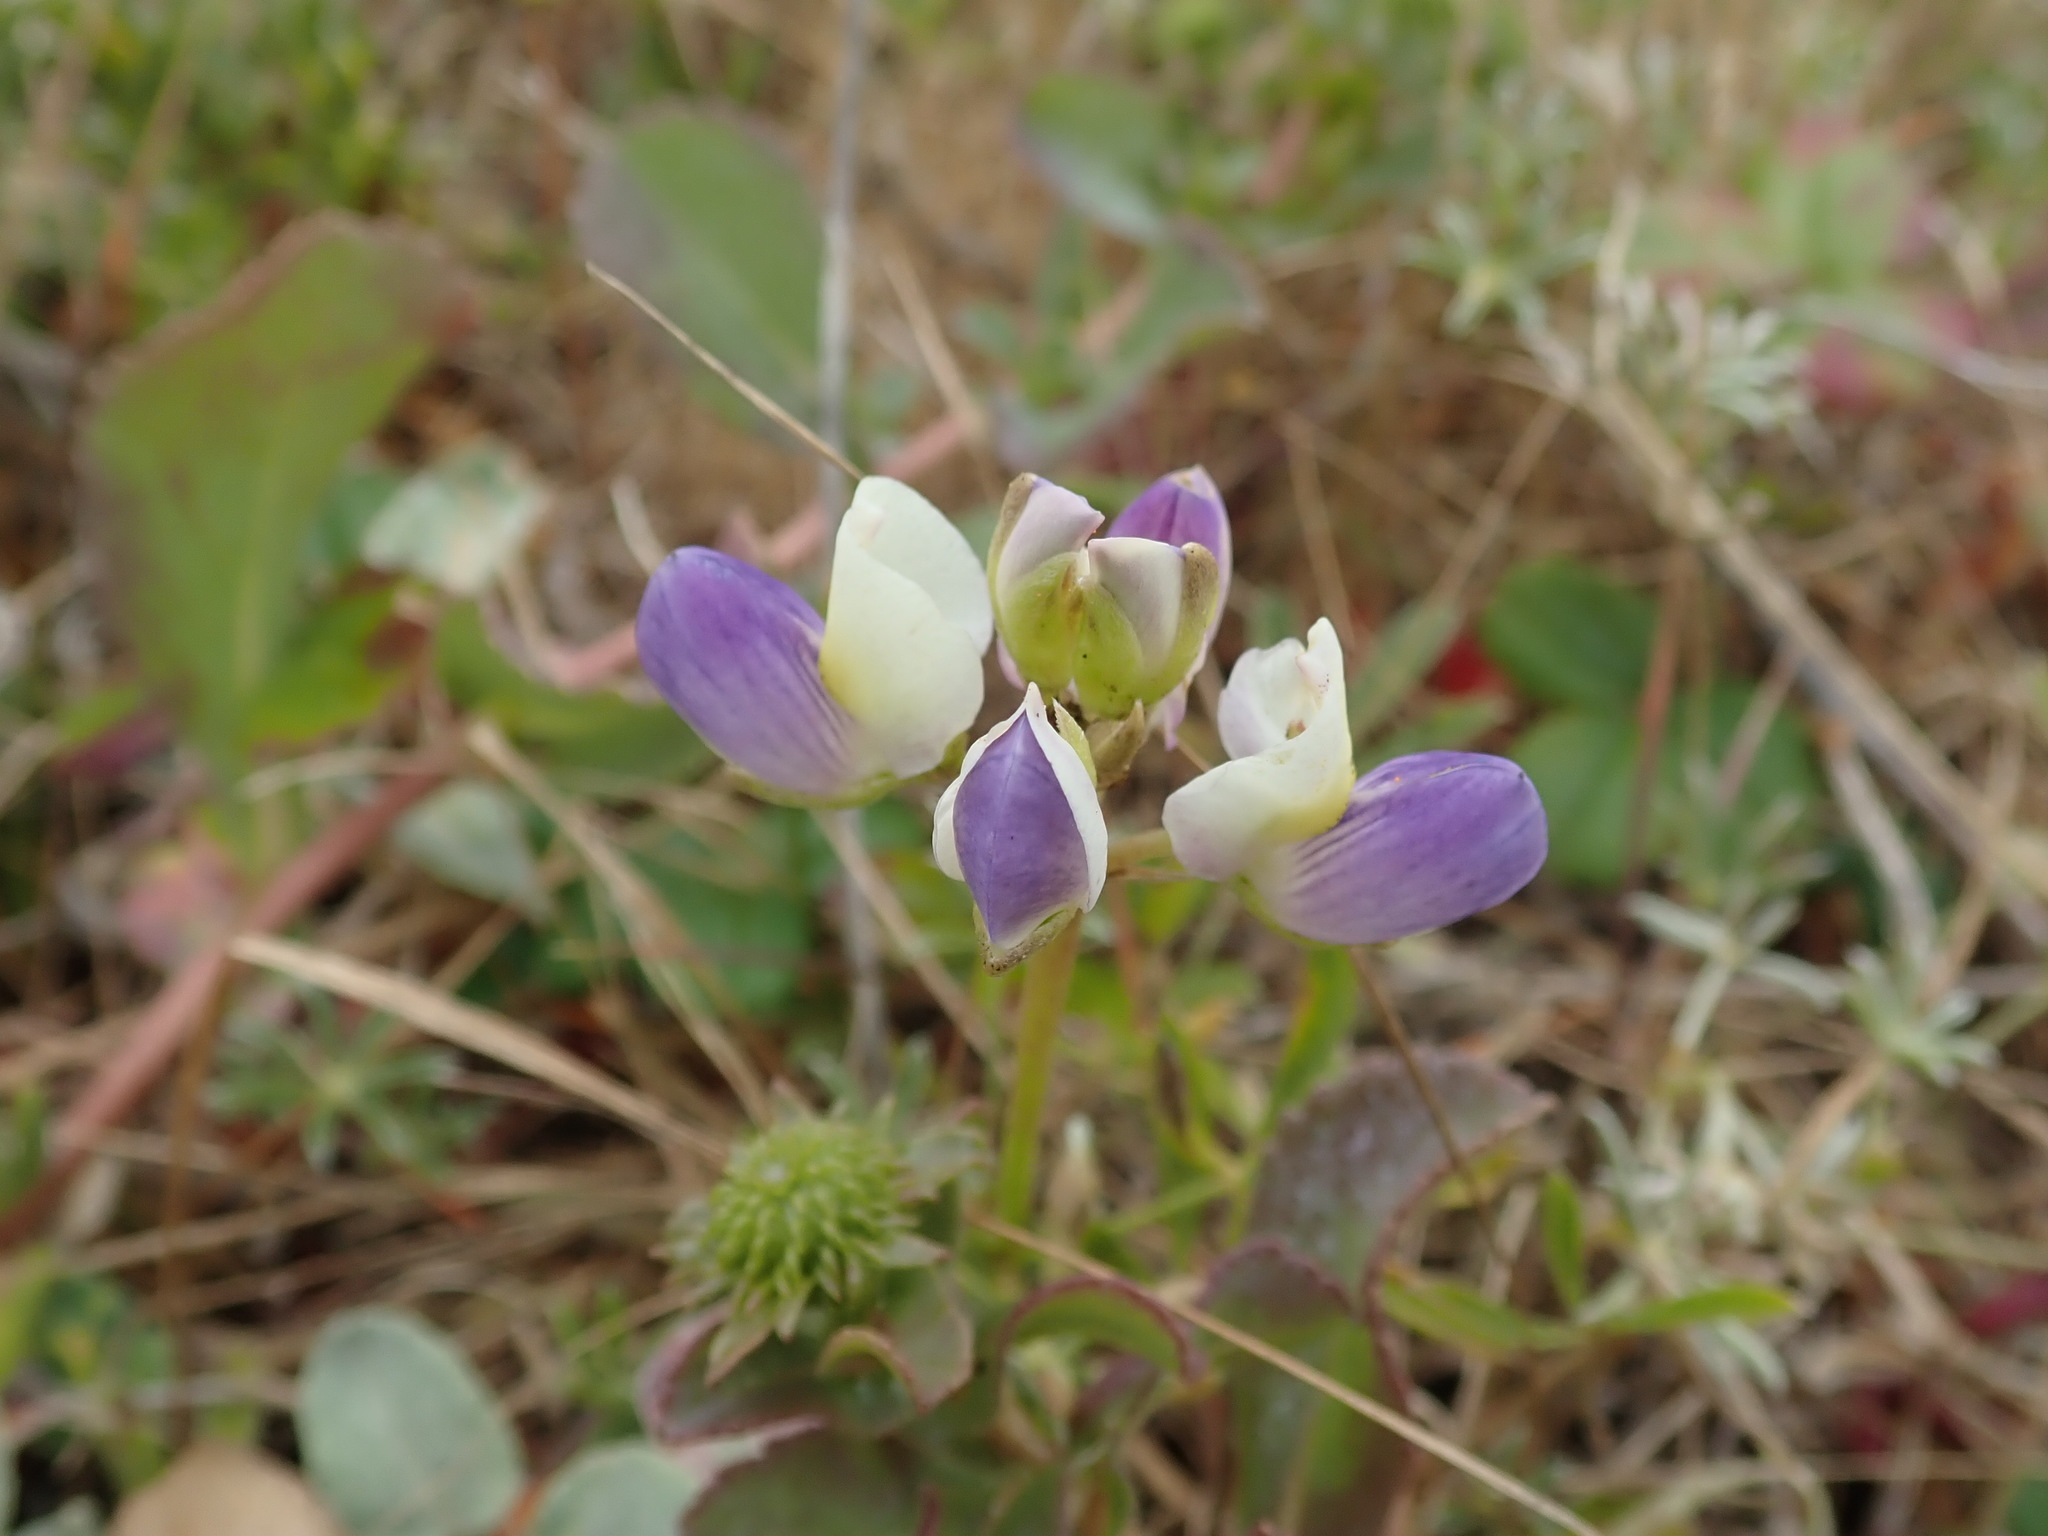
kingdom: Plantae
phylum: Tracheophyta
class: Magnoliopsida
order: Fabales
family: Fabaceae
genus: Lupinus
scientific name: Lupinus variicolor
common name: Lindley's varied lupine
